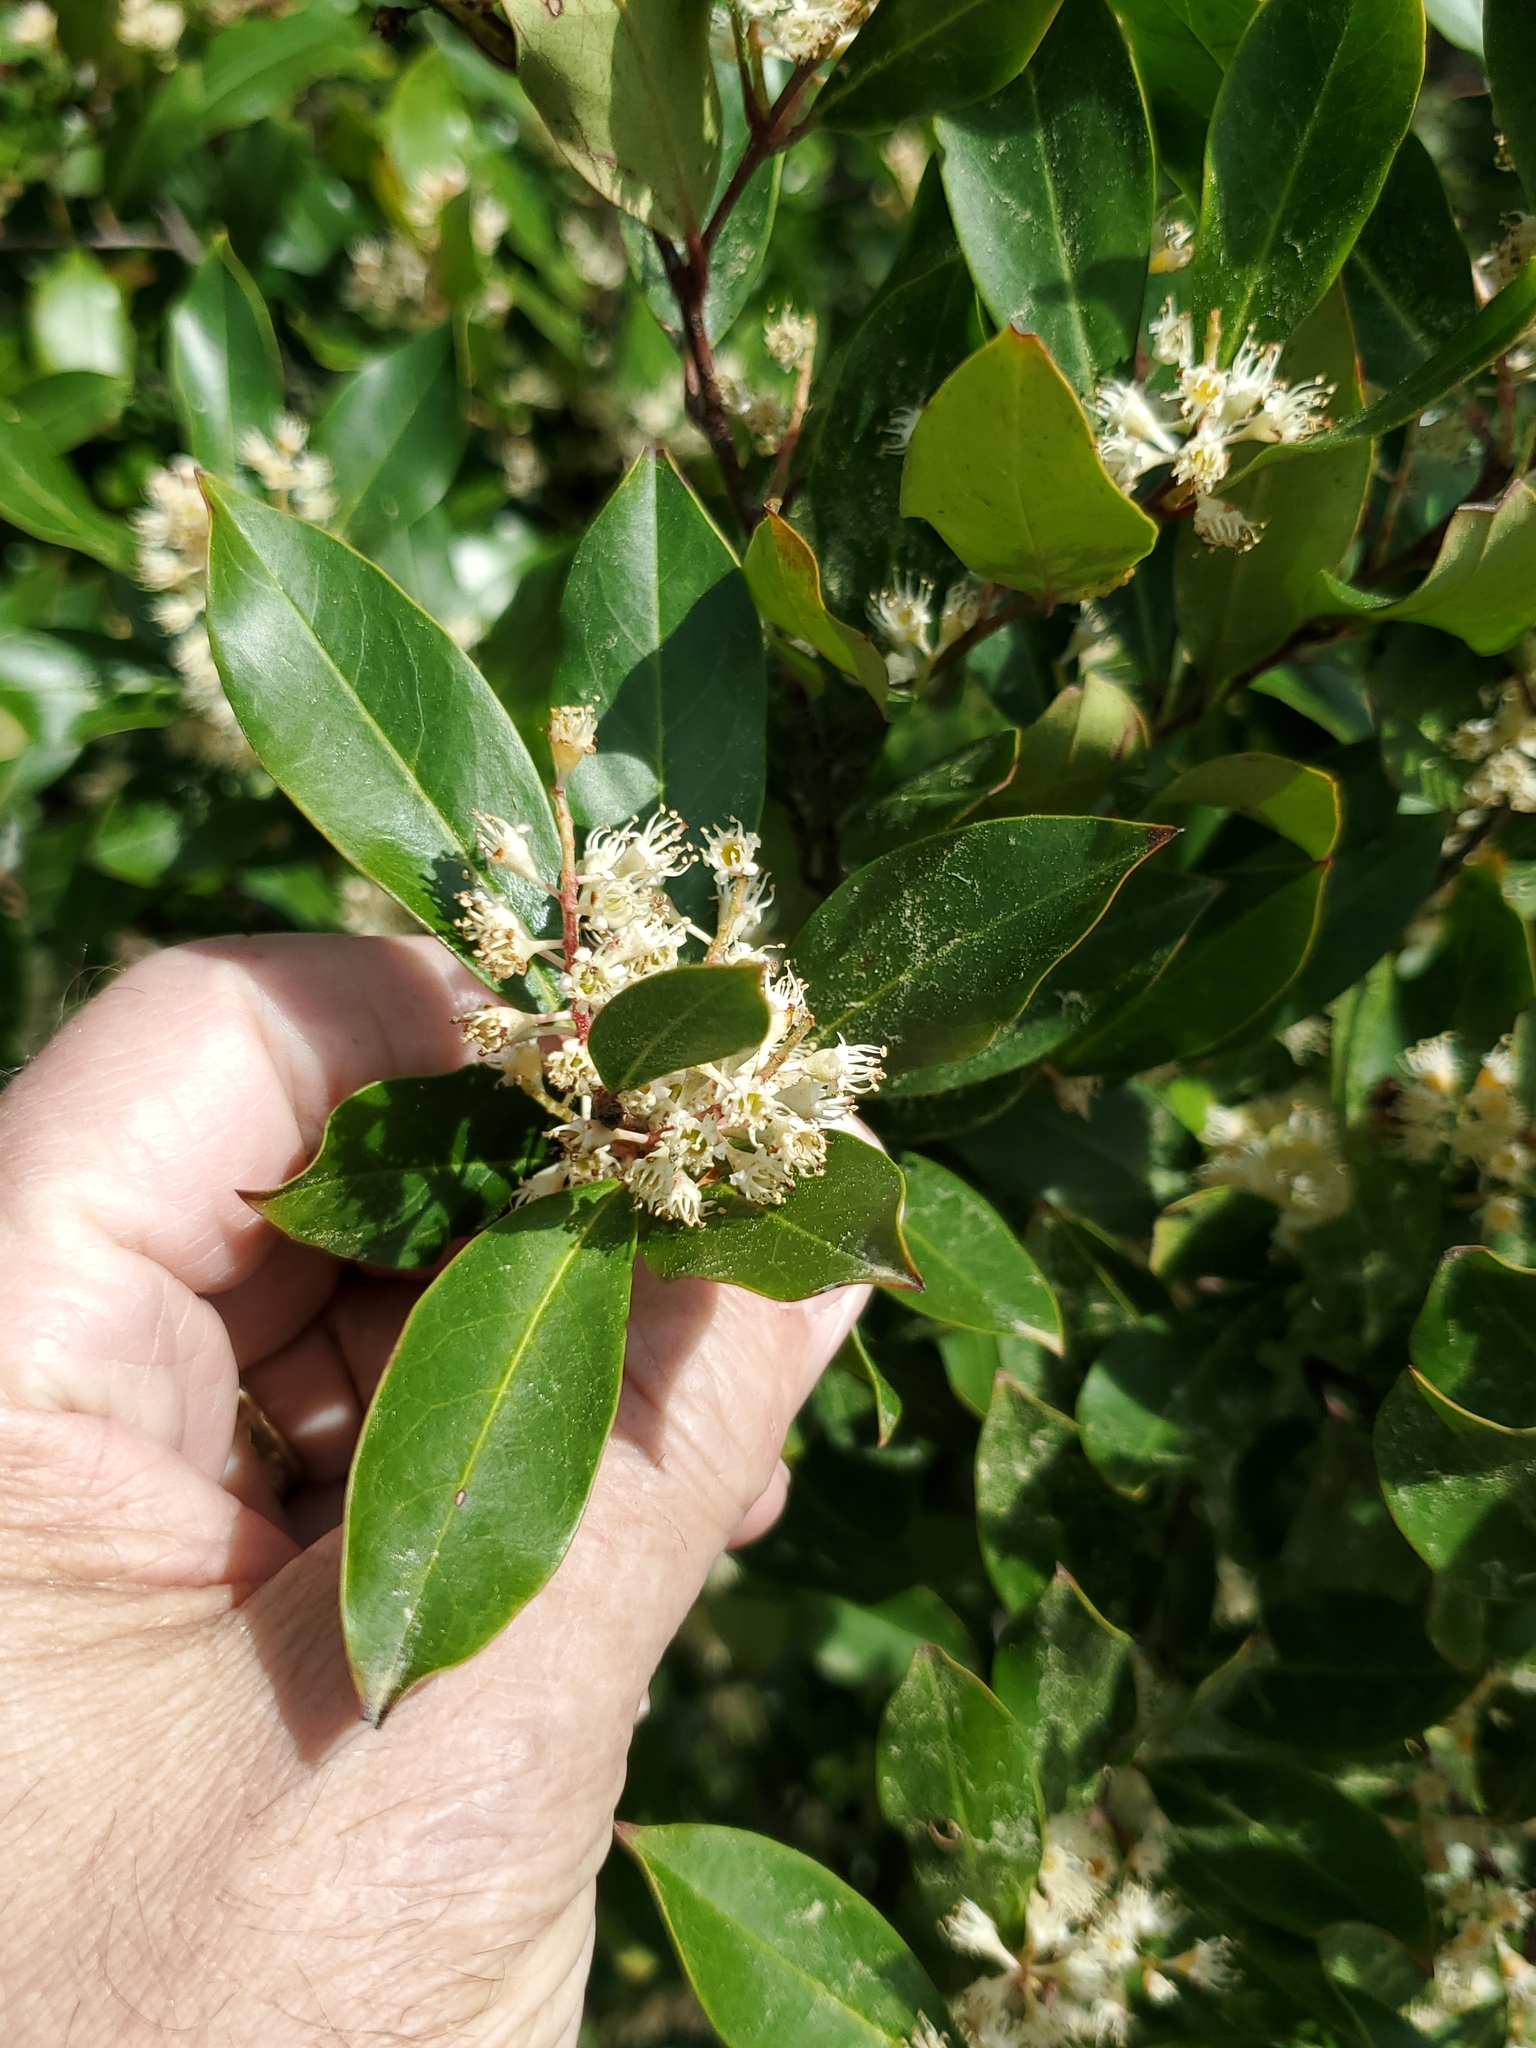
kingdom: Plantae
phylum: Tracheophyta
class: Magnoliopsida
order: Rosales
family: Rosaceae
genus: Prunus
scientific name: Prunus caroliniana
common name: Carolina laurel cherry
